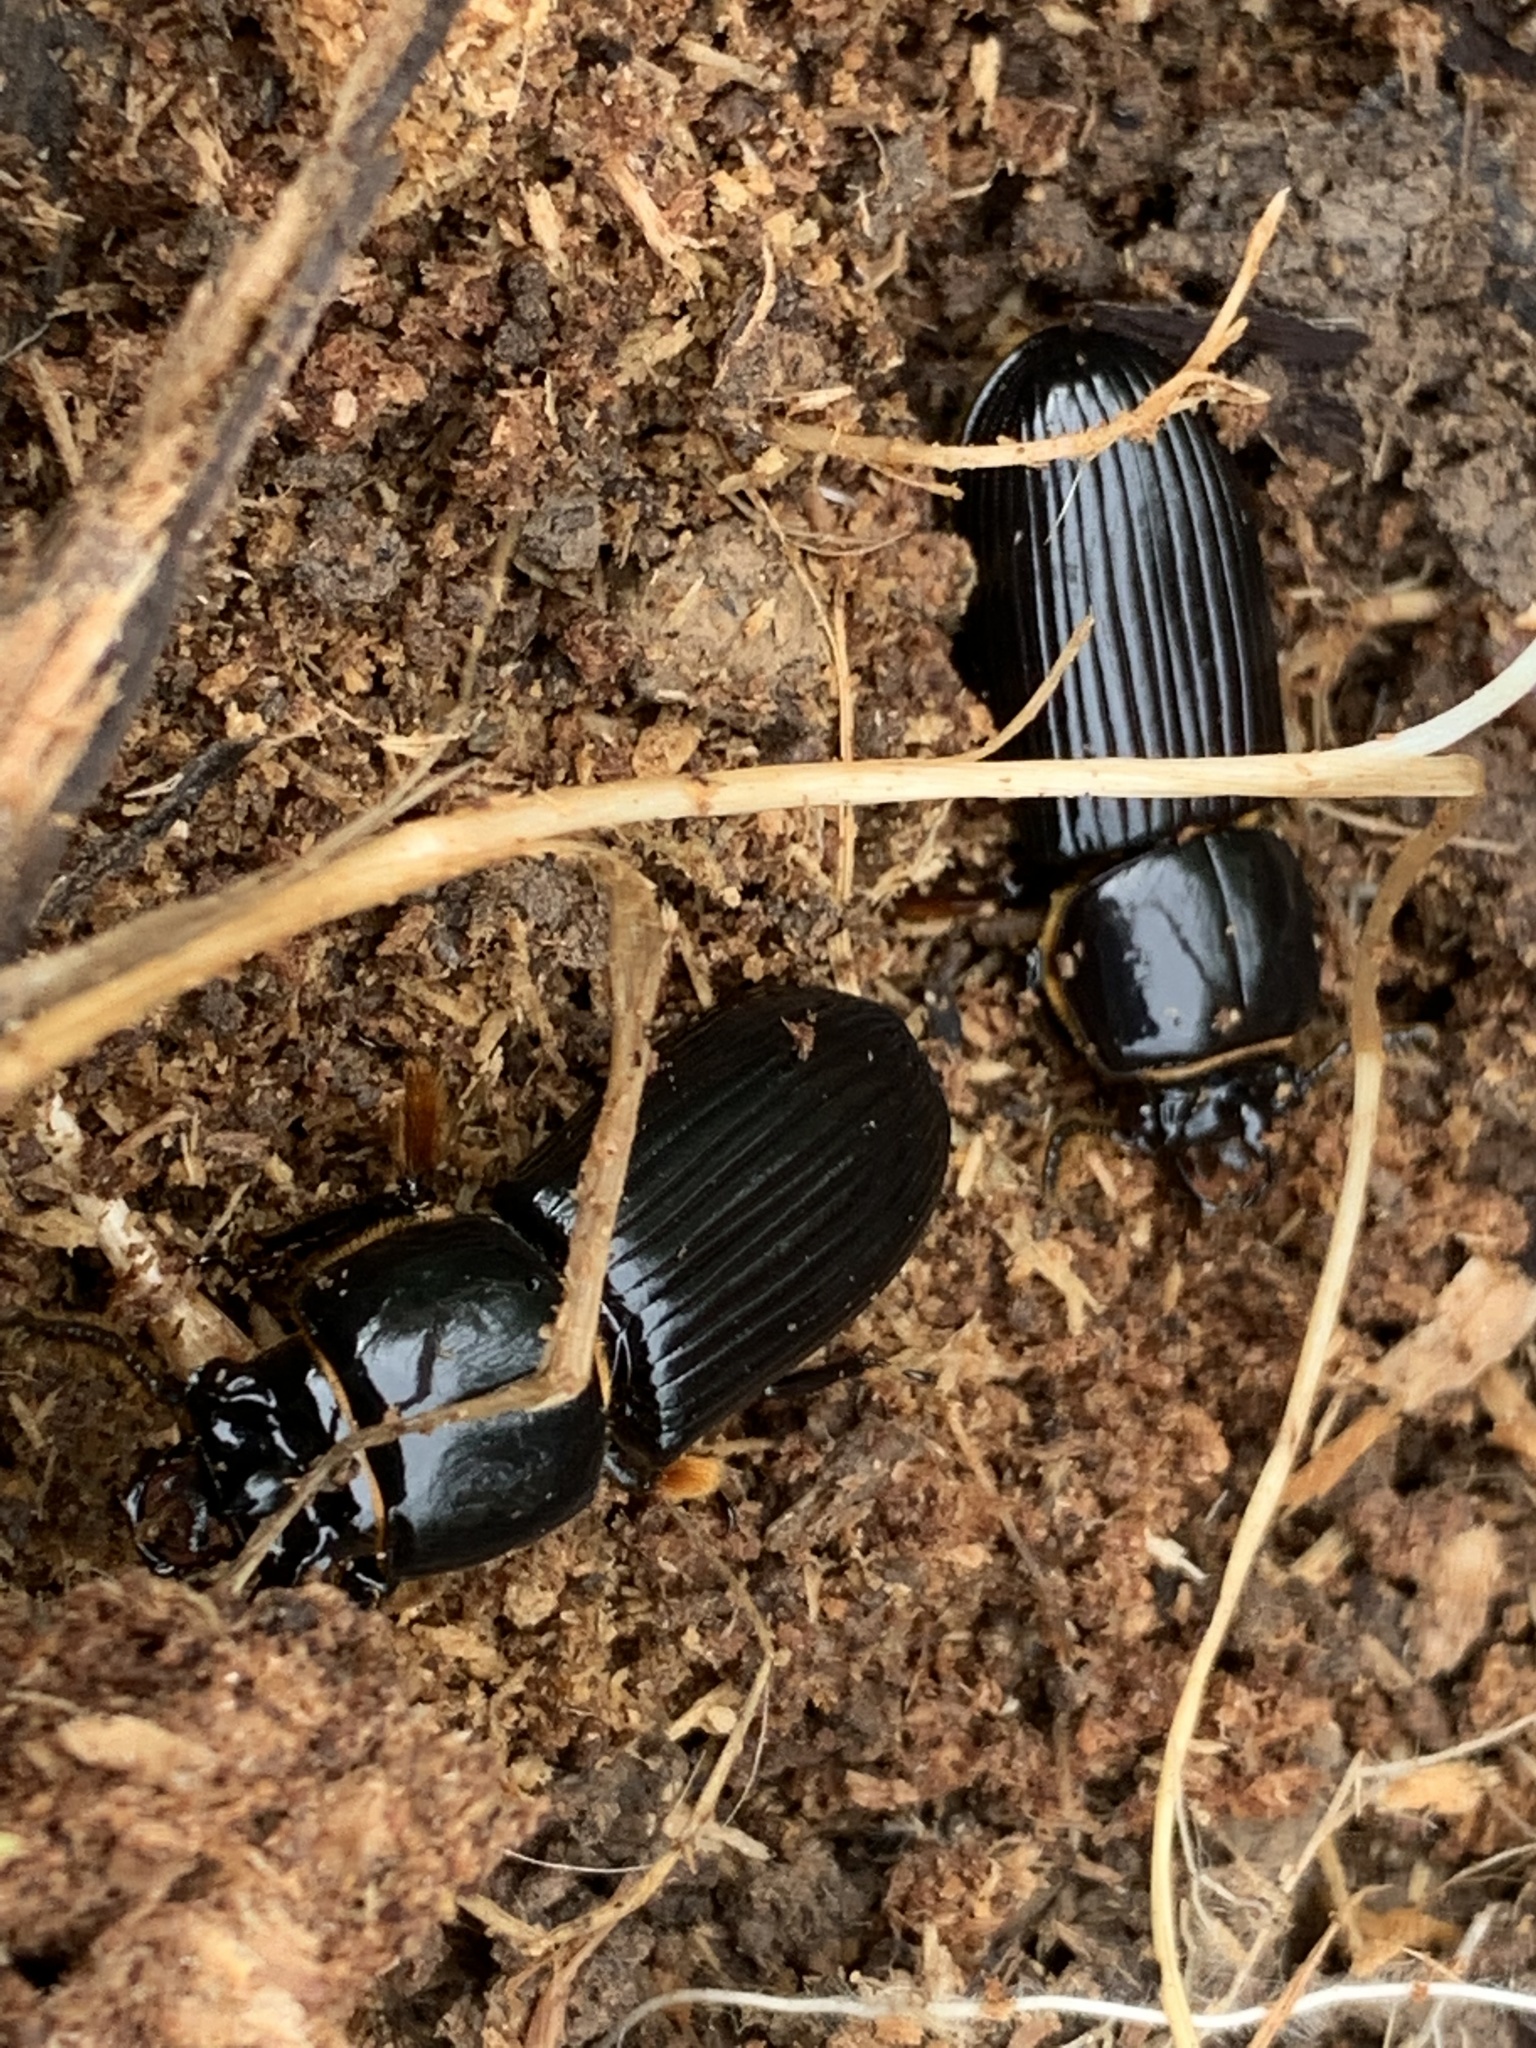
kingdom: Animalia
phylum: Arthropoda
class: Insecta
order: Coleoptera
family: Passalidae
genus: Odontotaenius
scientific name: Odontotaenius disjunctus
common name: Patent leather beetle
